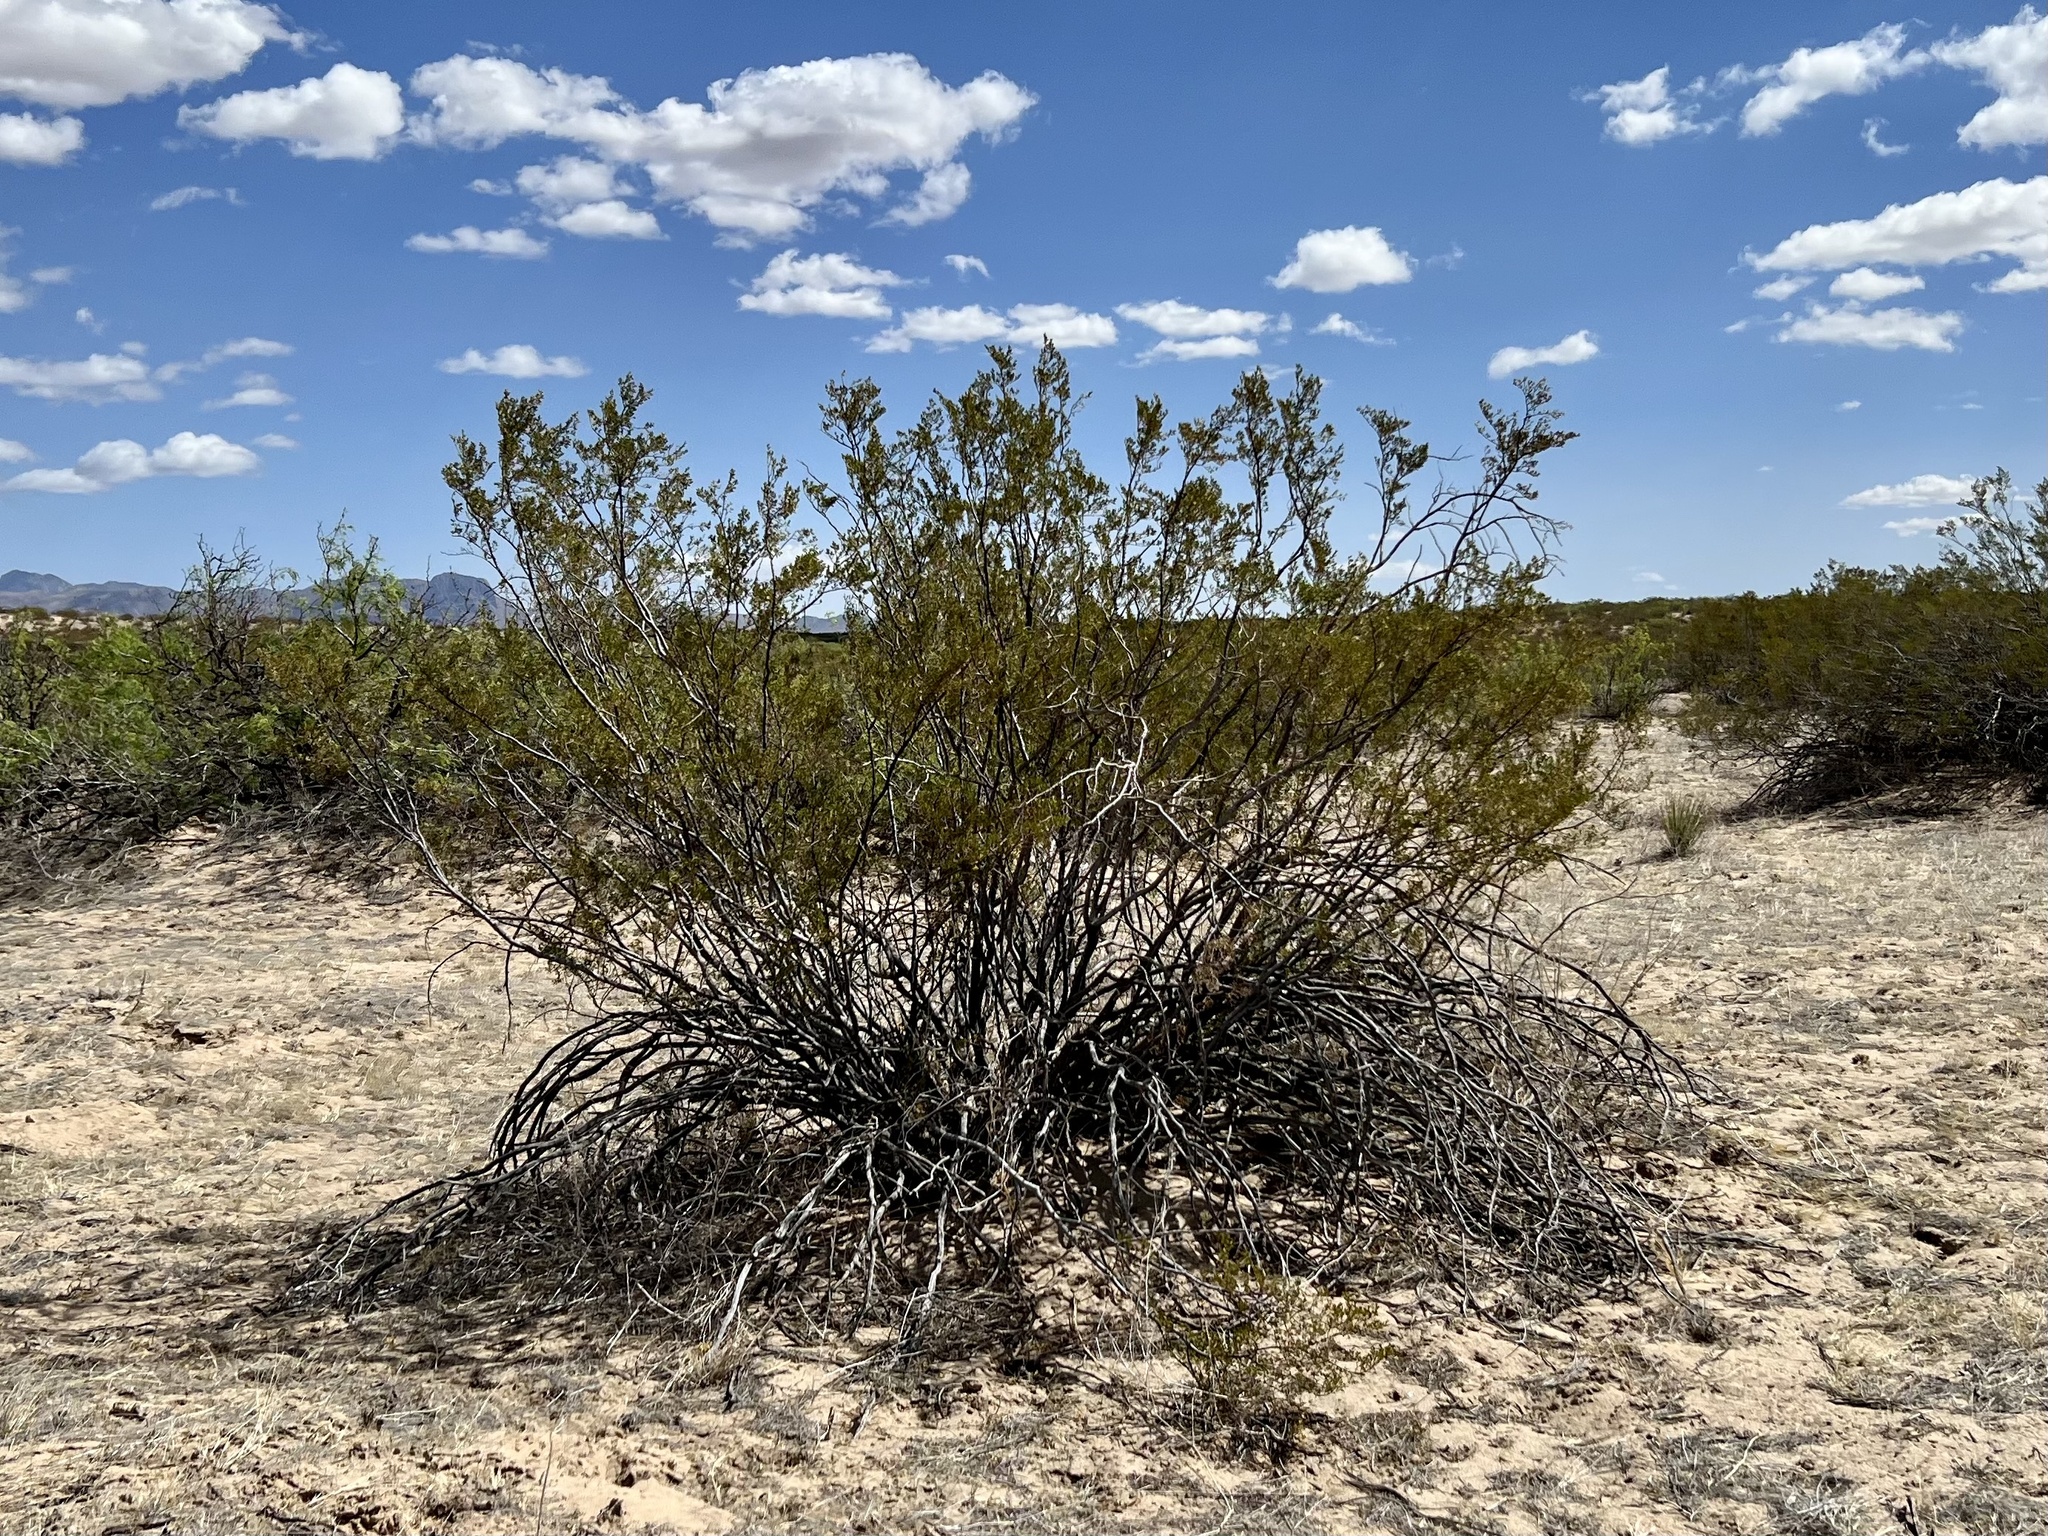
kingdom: Plantae
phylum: Tracheophyta
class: Magnoliopsida
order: Zygophyllales
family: Zygophyllaceae
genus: Larrea
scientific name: Larrea tridentata
